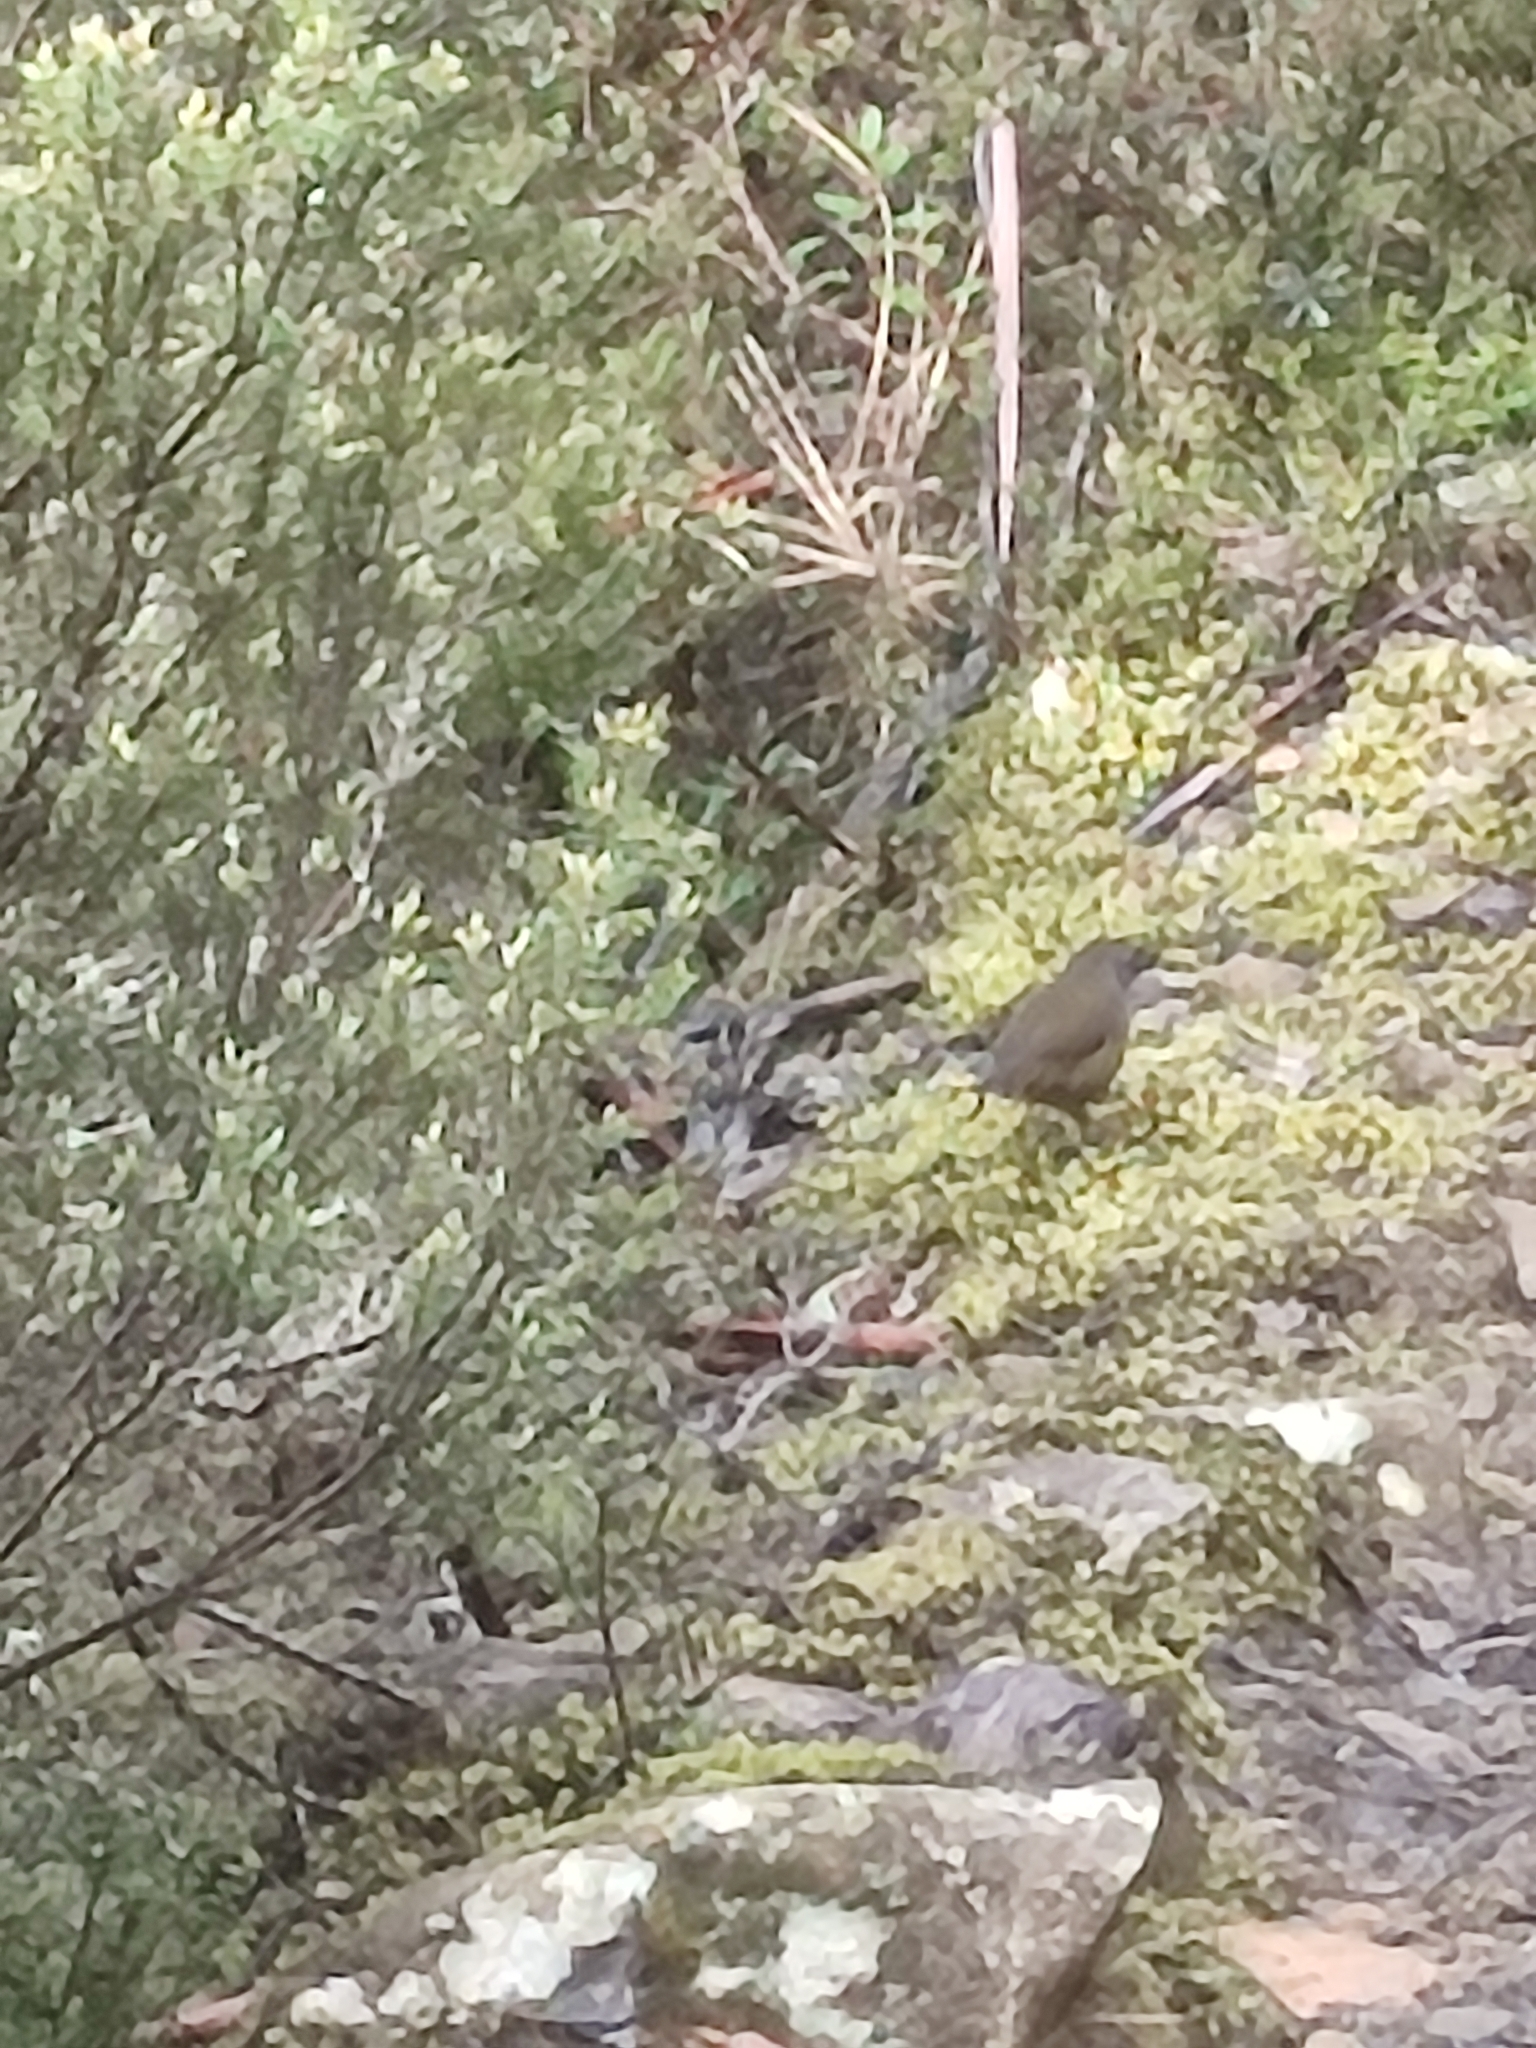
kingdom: Animalia
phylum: Chordata
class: Aves
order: Passeriformes
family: Acanthizidae
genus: Sericornis
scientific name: Sericornis humilis
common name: Tasmanian scrubwren
